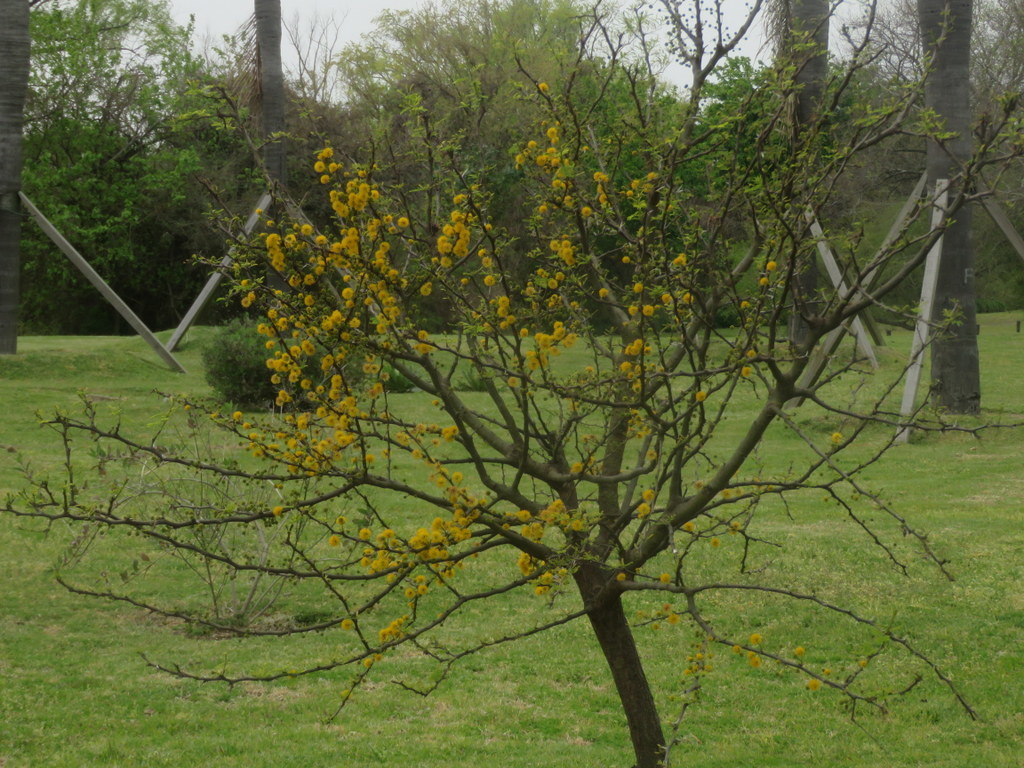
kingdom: Plantae
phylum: Tracheophyta
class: Magnoliopsida
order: Fabales
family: Fabaceae
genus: Vachellia
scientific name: Vachellia caven
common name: Roman cassie
